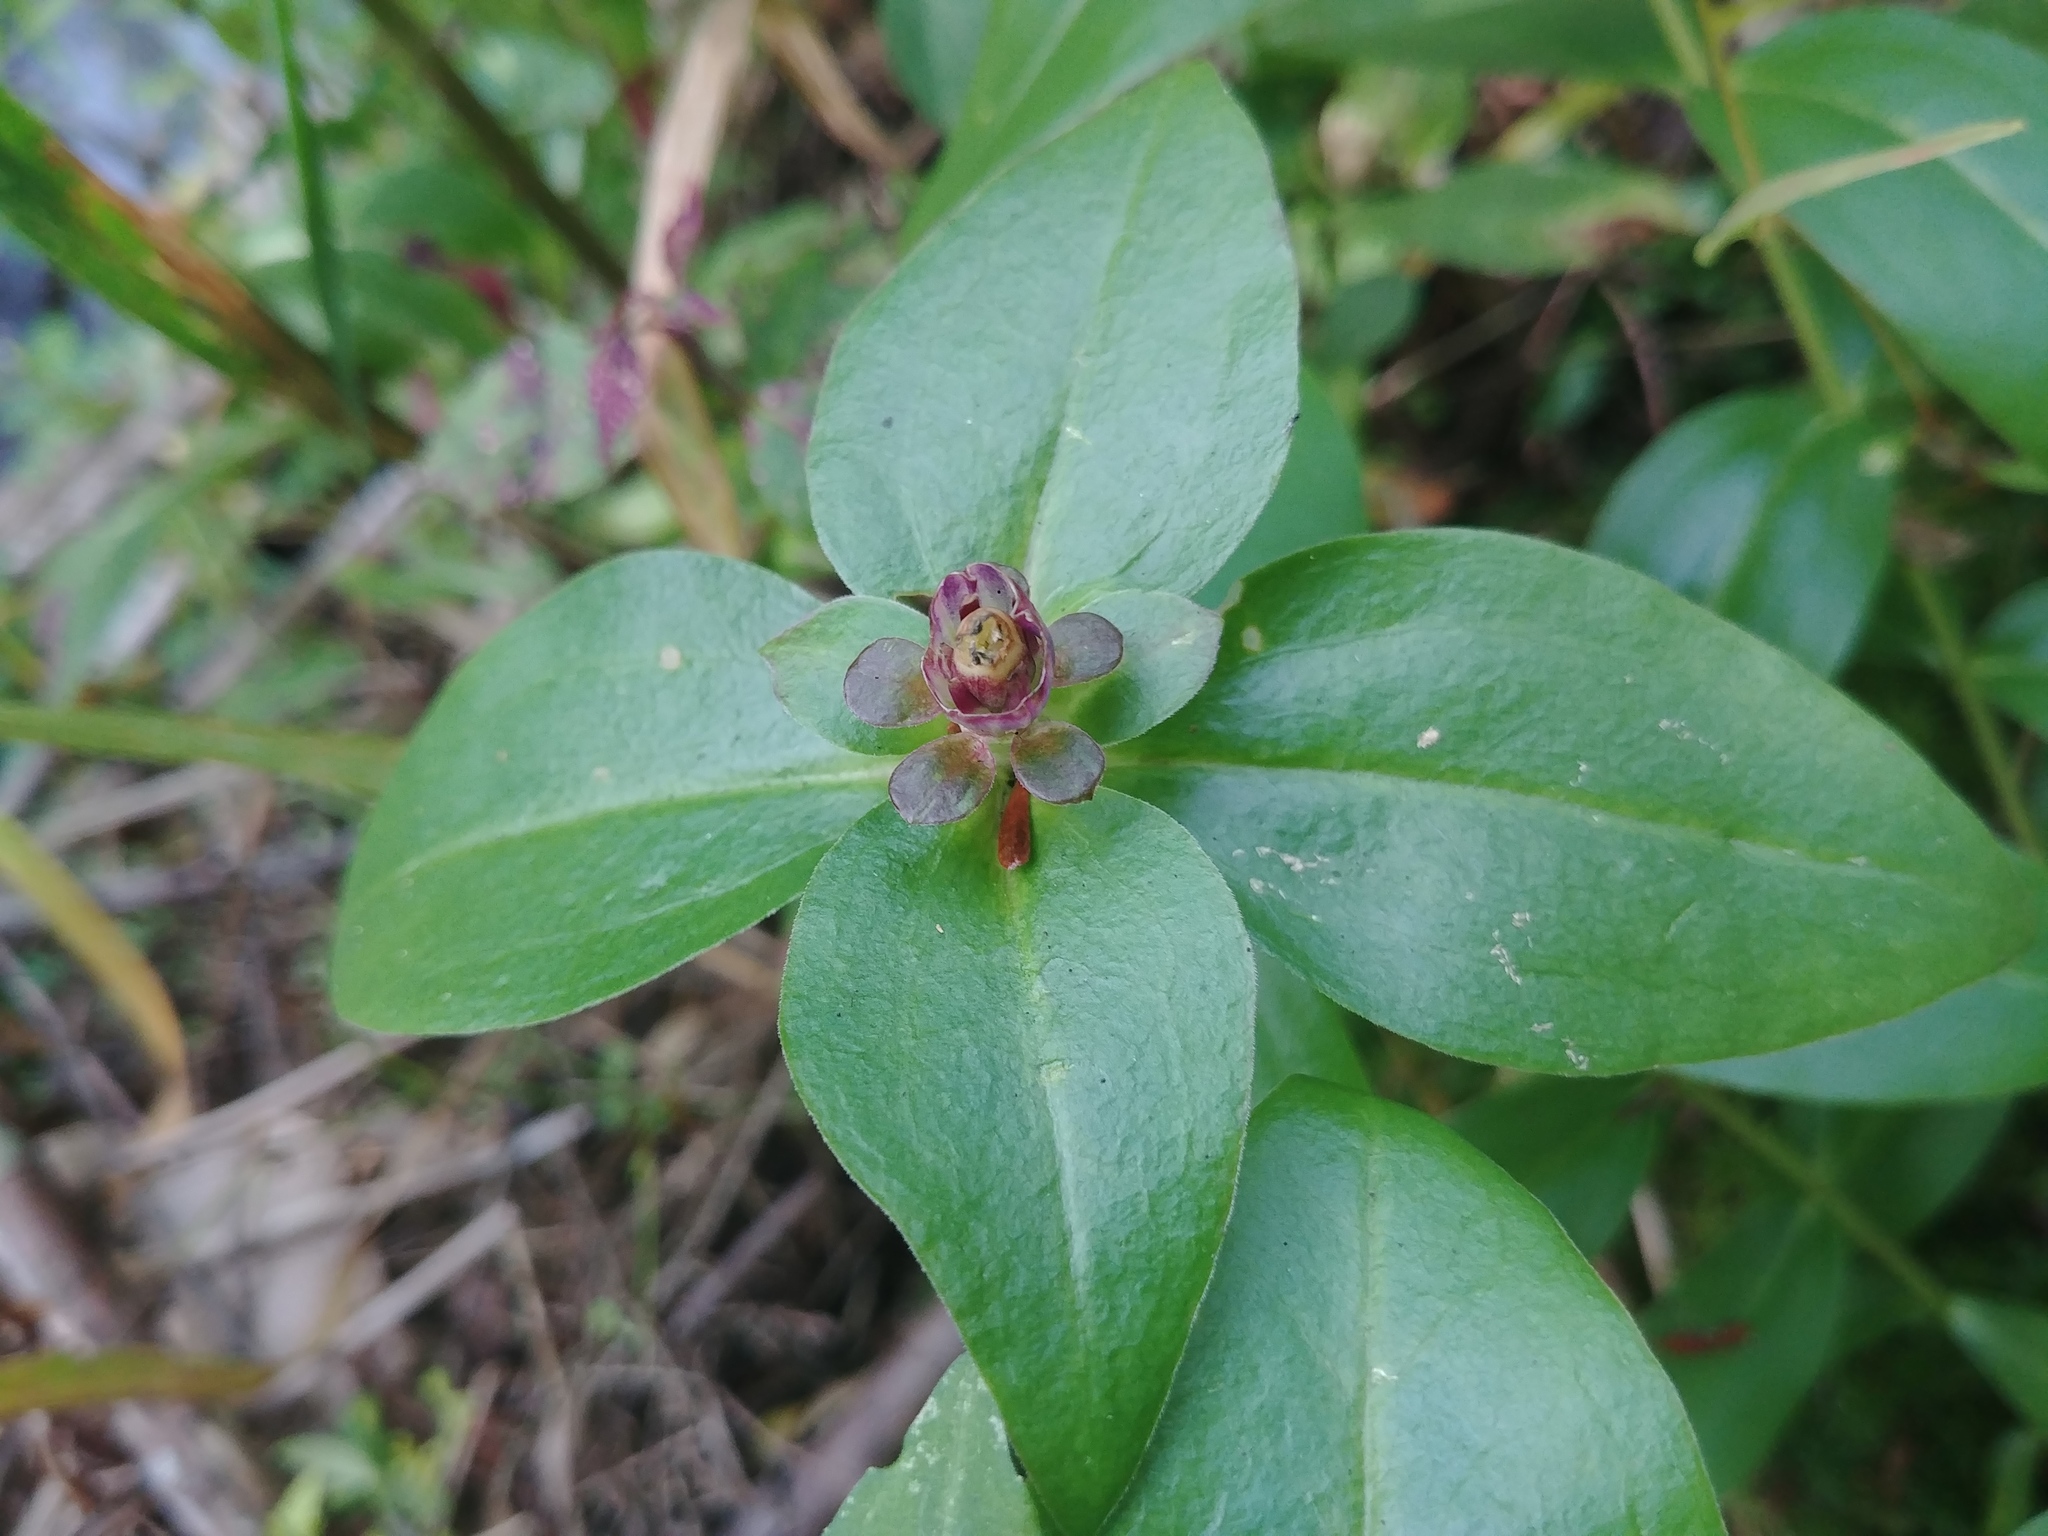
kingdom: Plantae
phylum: Tracheophyta
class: Magnoliopsida
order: Gentianales
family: Gentianaceae
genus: Gentiana
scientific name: Gentiana clausa
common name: Blind gentian
